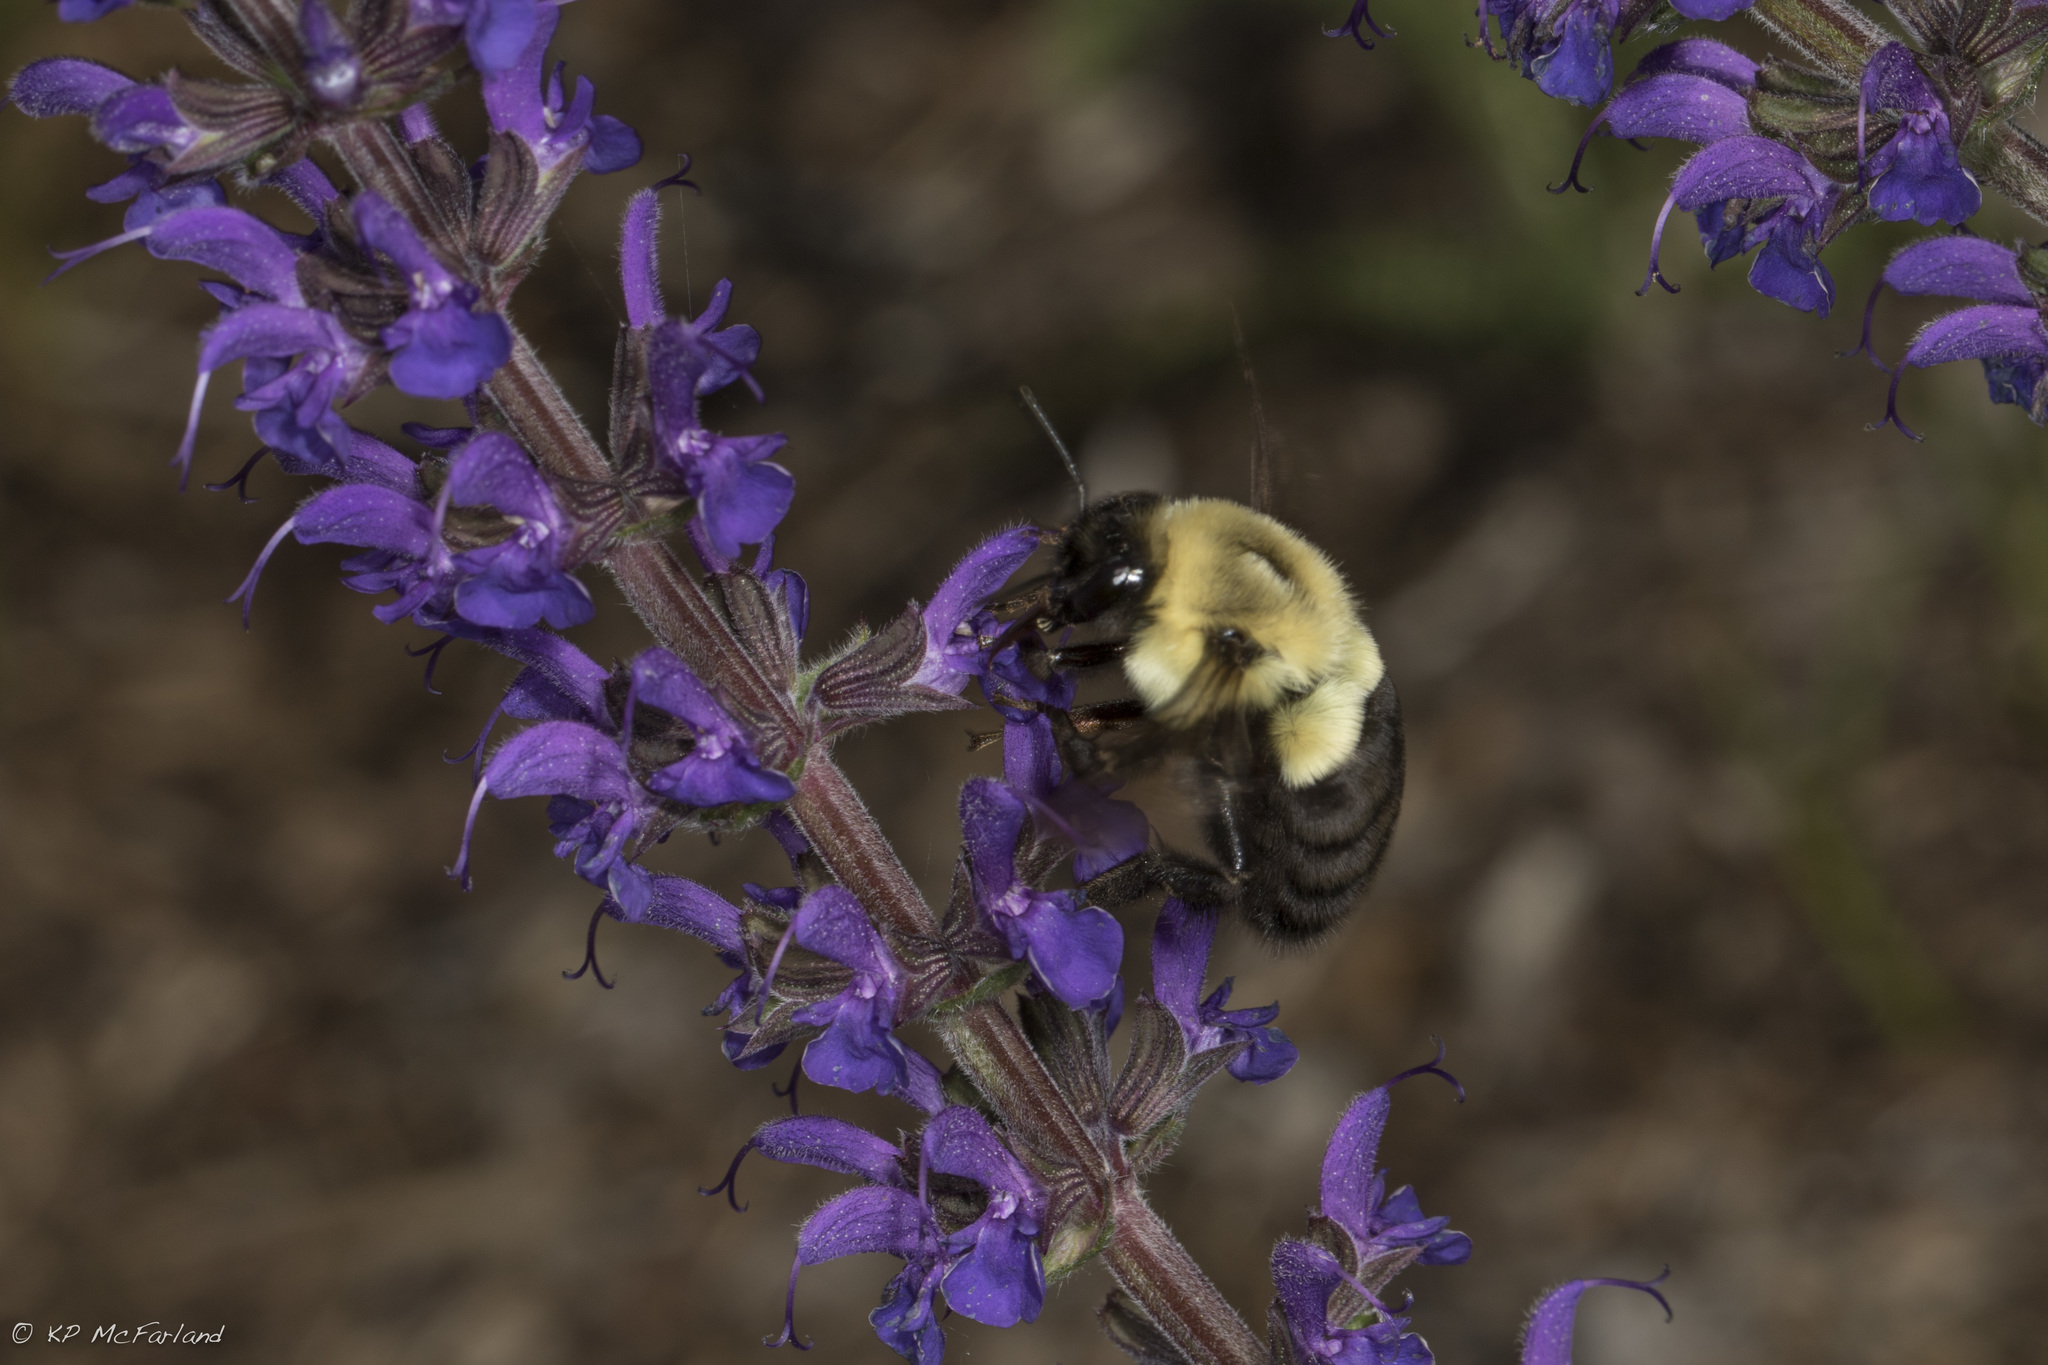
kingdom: Animalia
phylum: Arthropoda
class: Insecta
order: Hymenoptera
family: Apidae
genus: Bombus
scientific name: Bombus impatiens
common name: Common eastern bumble bee
